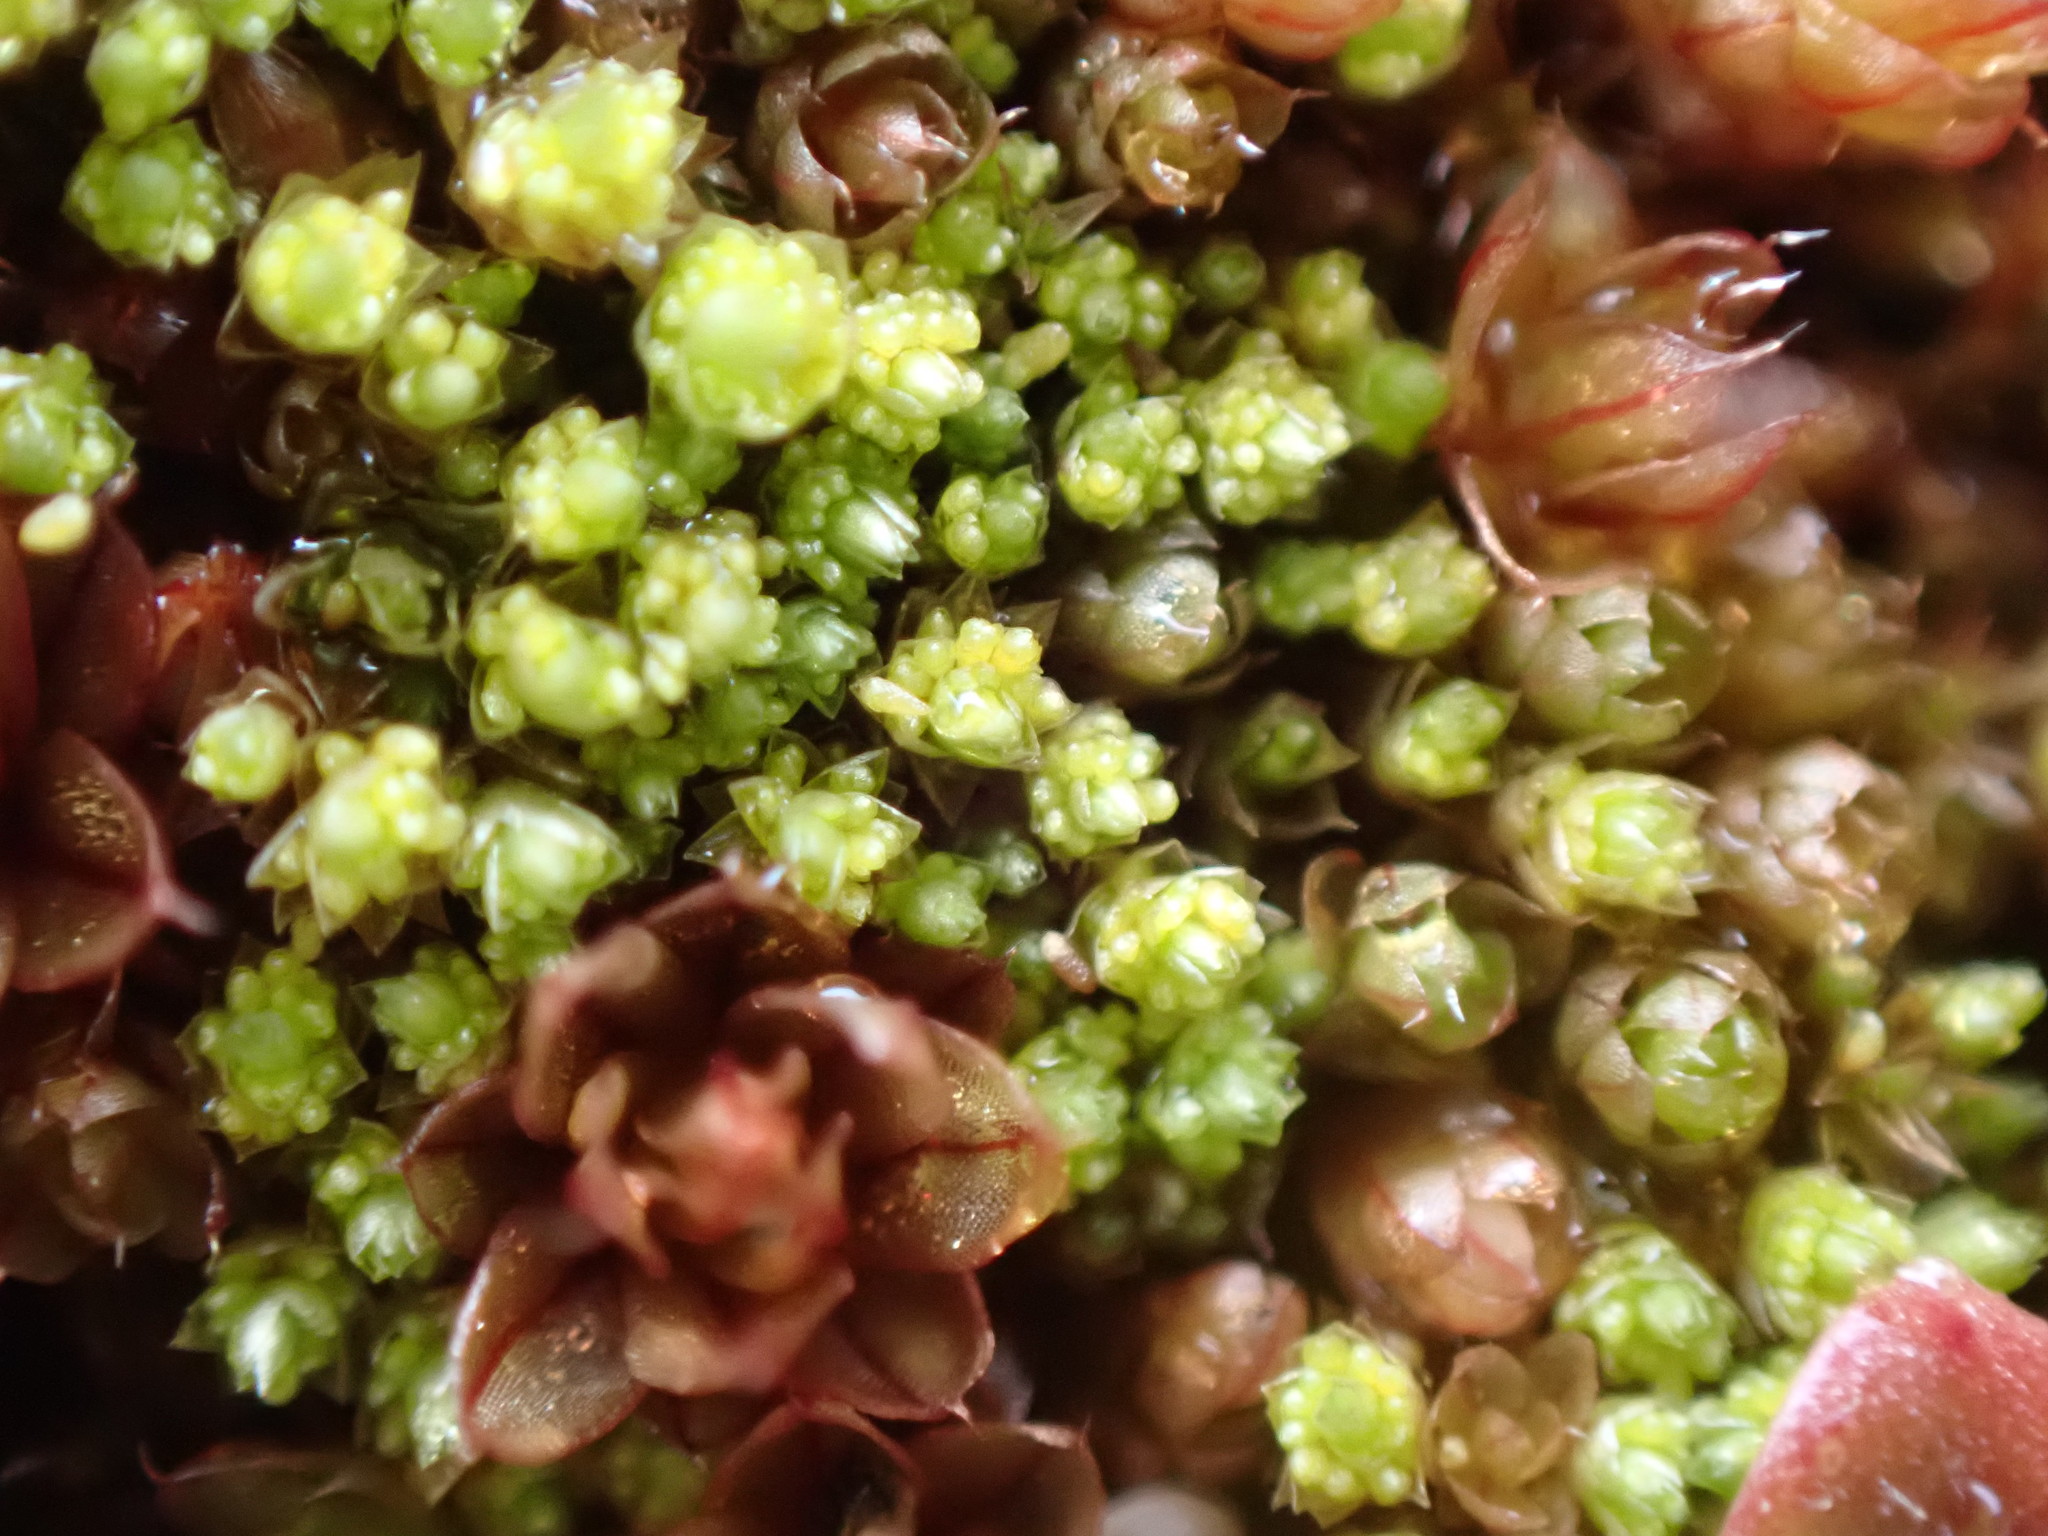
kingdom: Plantae
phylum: Bryophyta
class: Bryopsida
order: Bryales
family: Bryaceae
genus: Gemmabryum
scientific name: Gemmabryum
